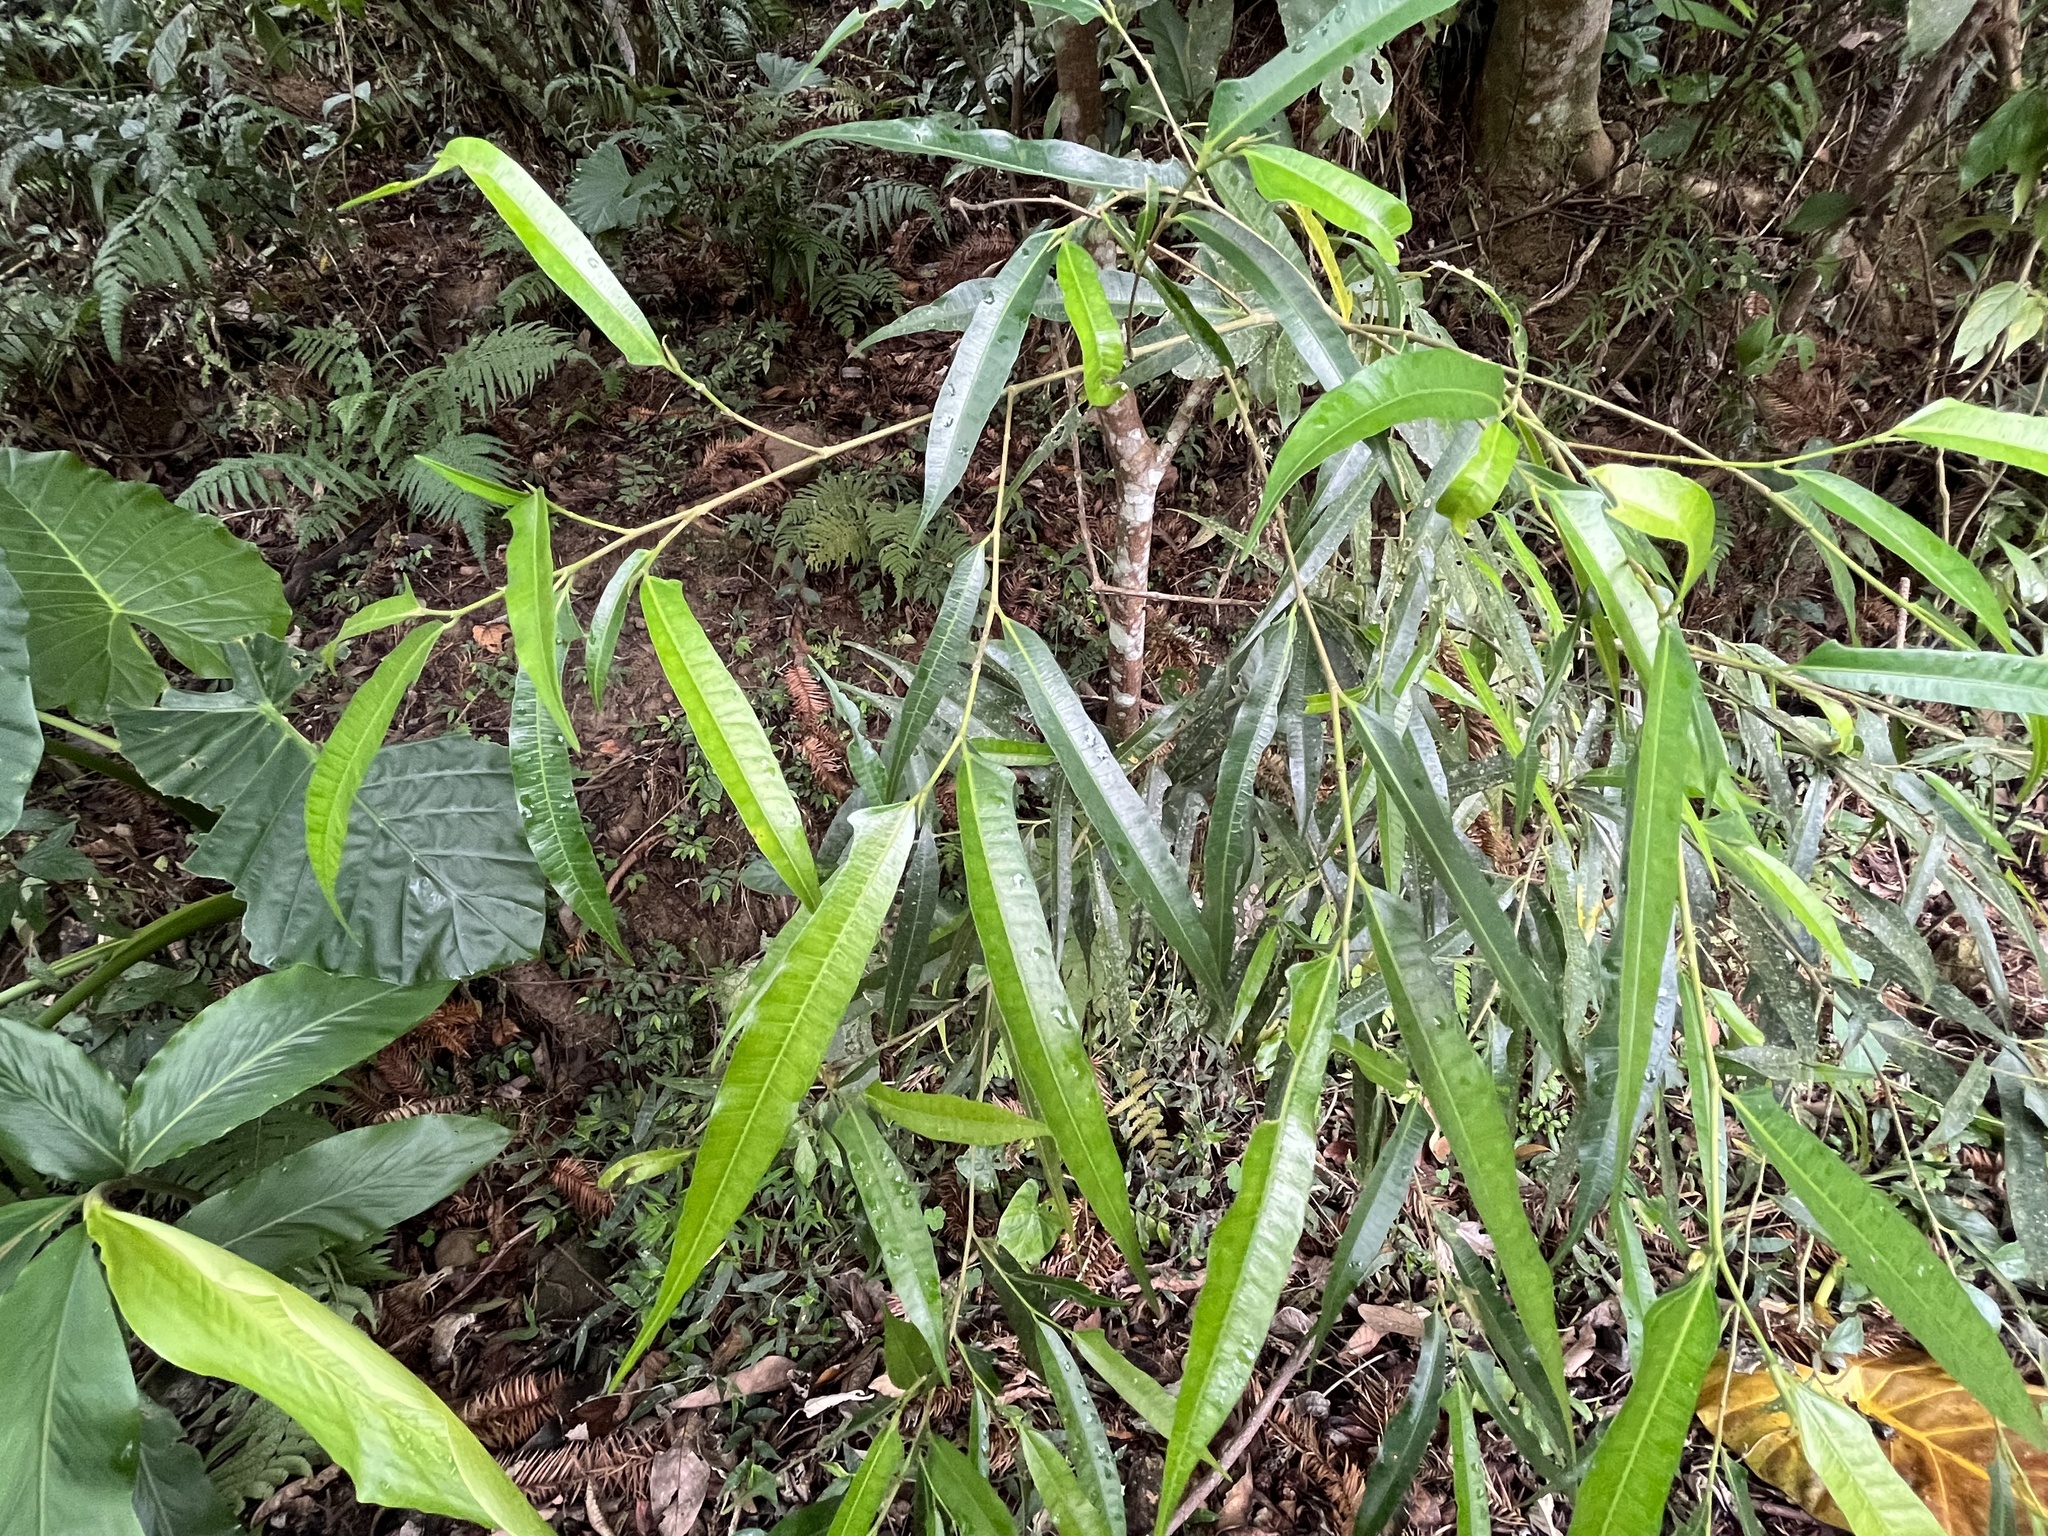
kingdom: Plantae
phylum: Tracheophyta
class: Magnoliopsida
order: Rosales
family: Moraceae
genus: Ficus
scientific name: Ficus ampelos
